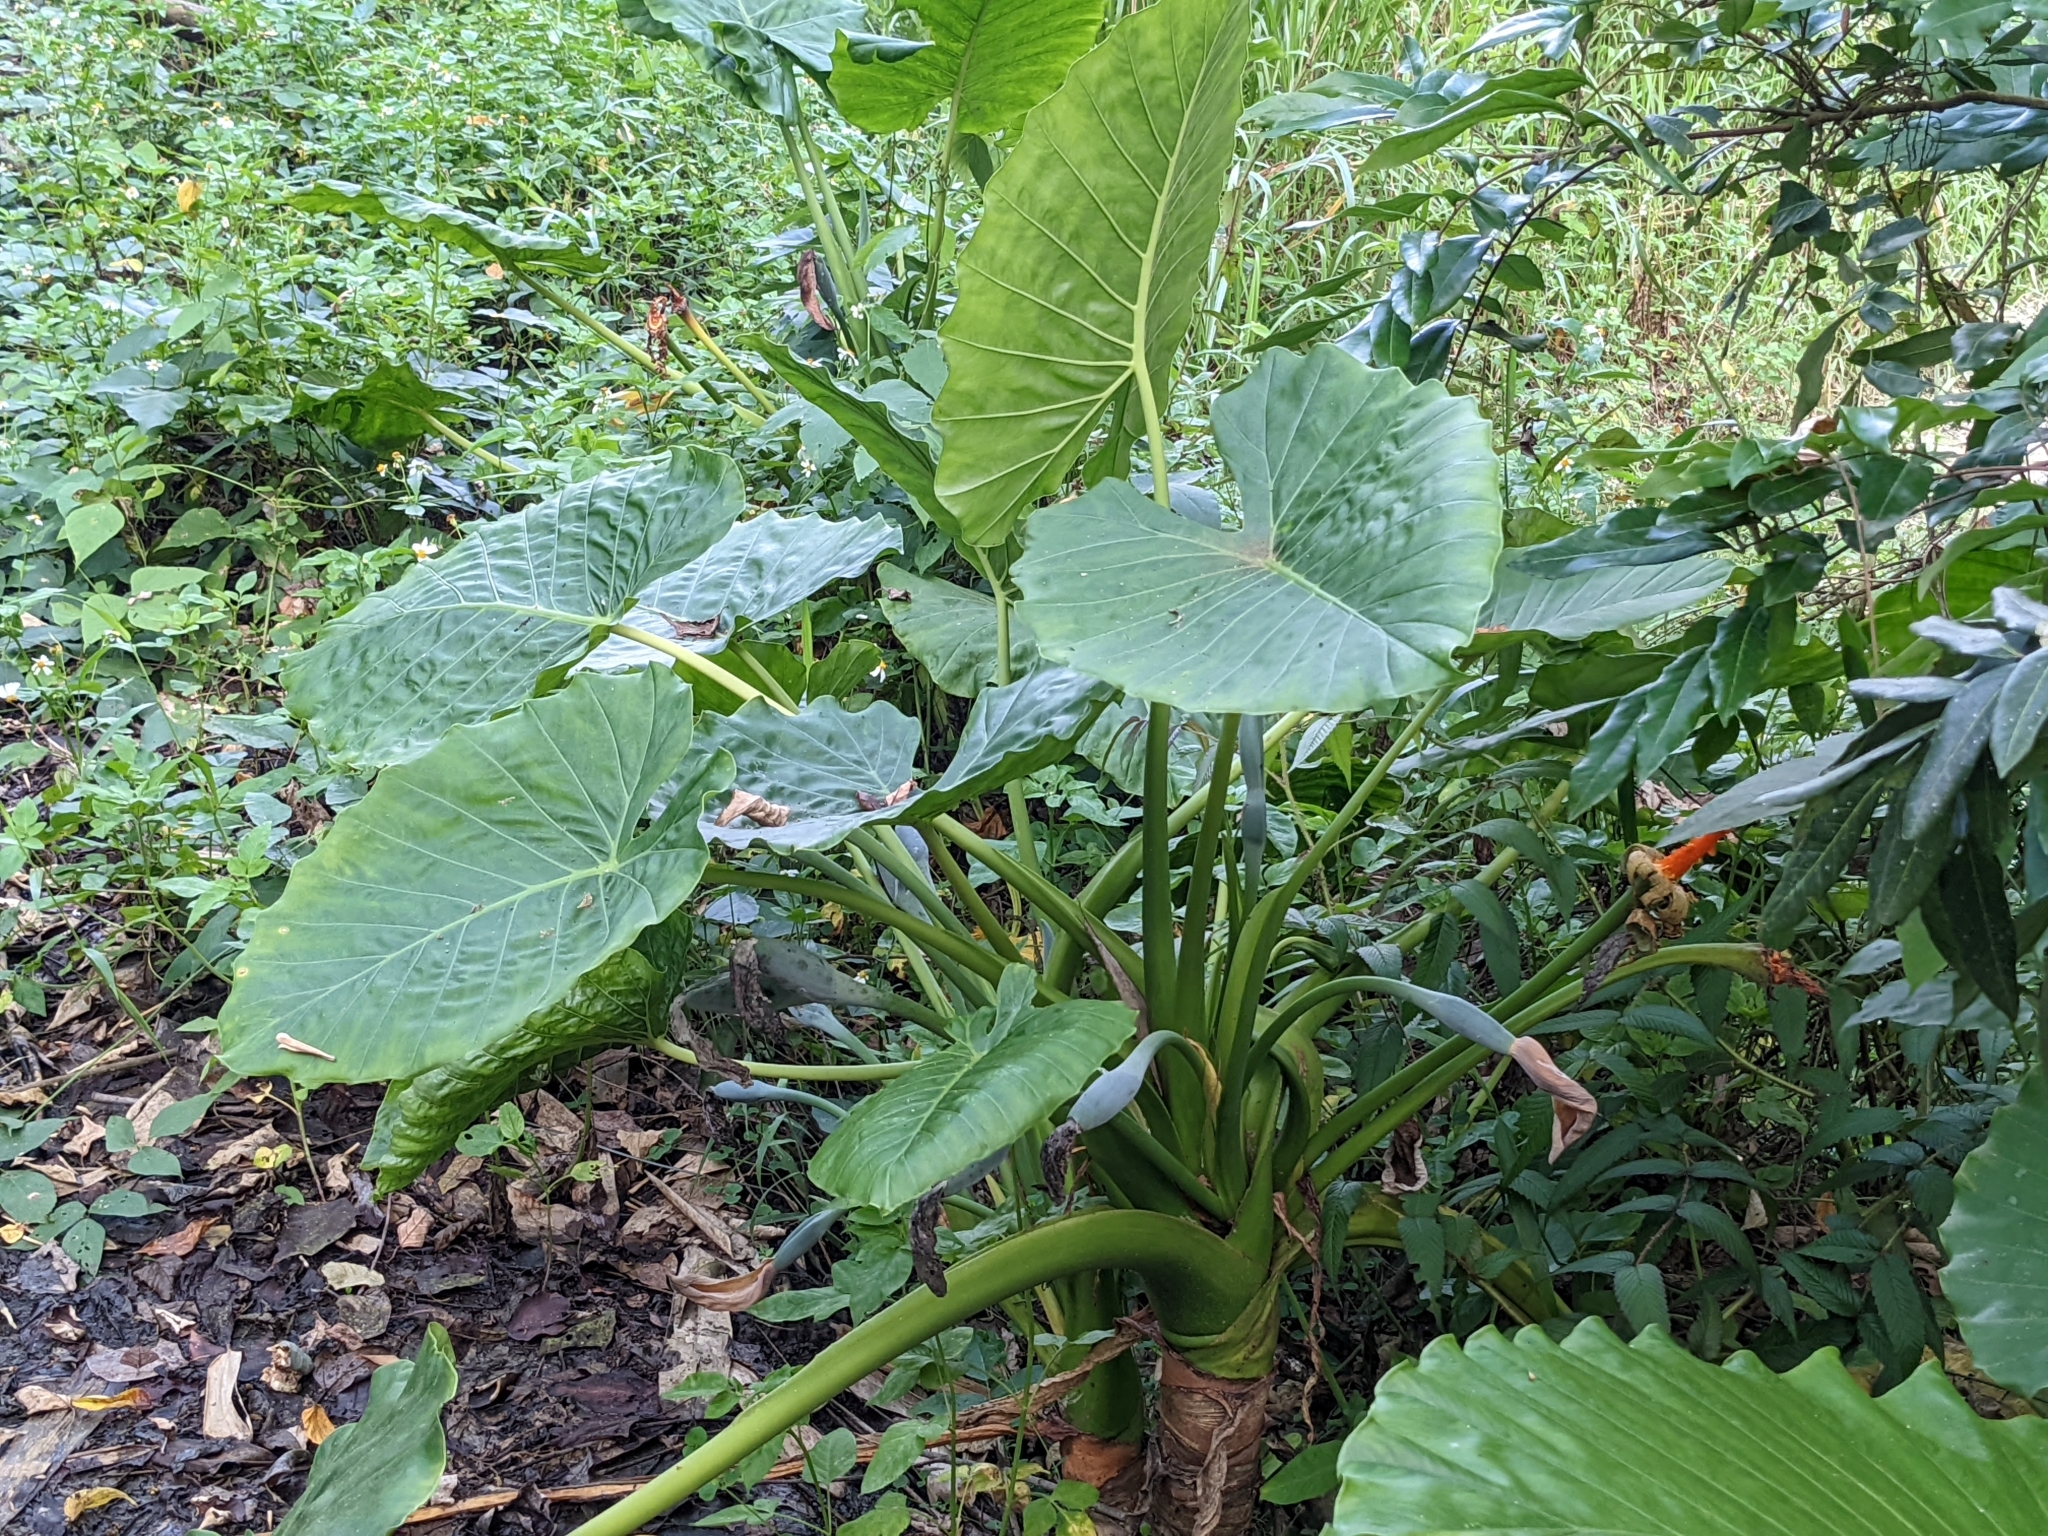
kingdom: Plantae
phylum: Tracheophyta
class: Liliopsida
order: Alismatales
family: Araceae
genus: Alocasia
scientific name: Alocasia odora
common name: Asian taro
